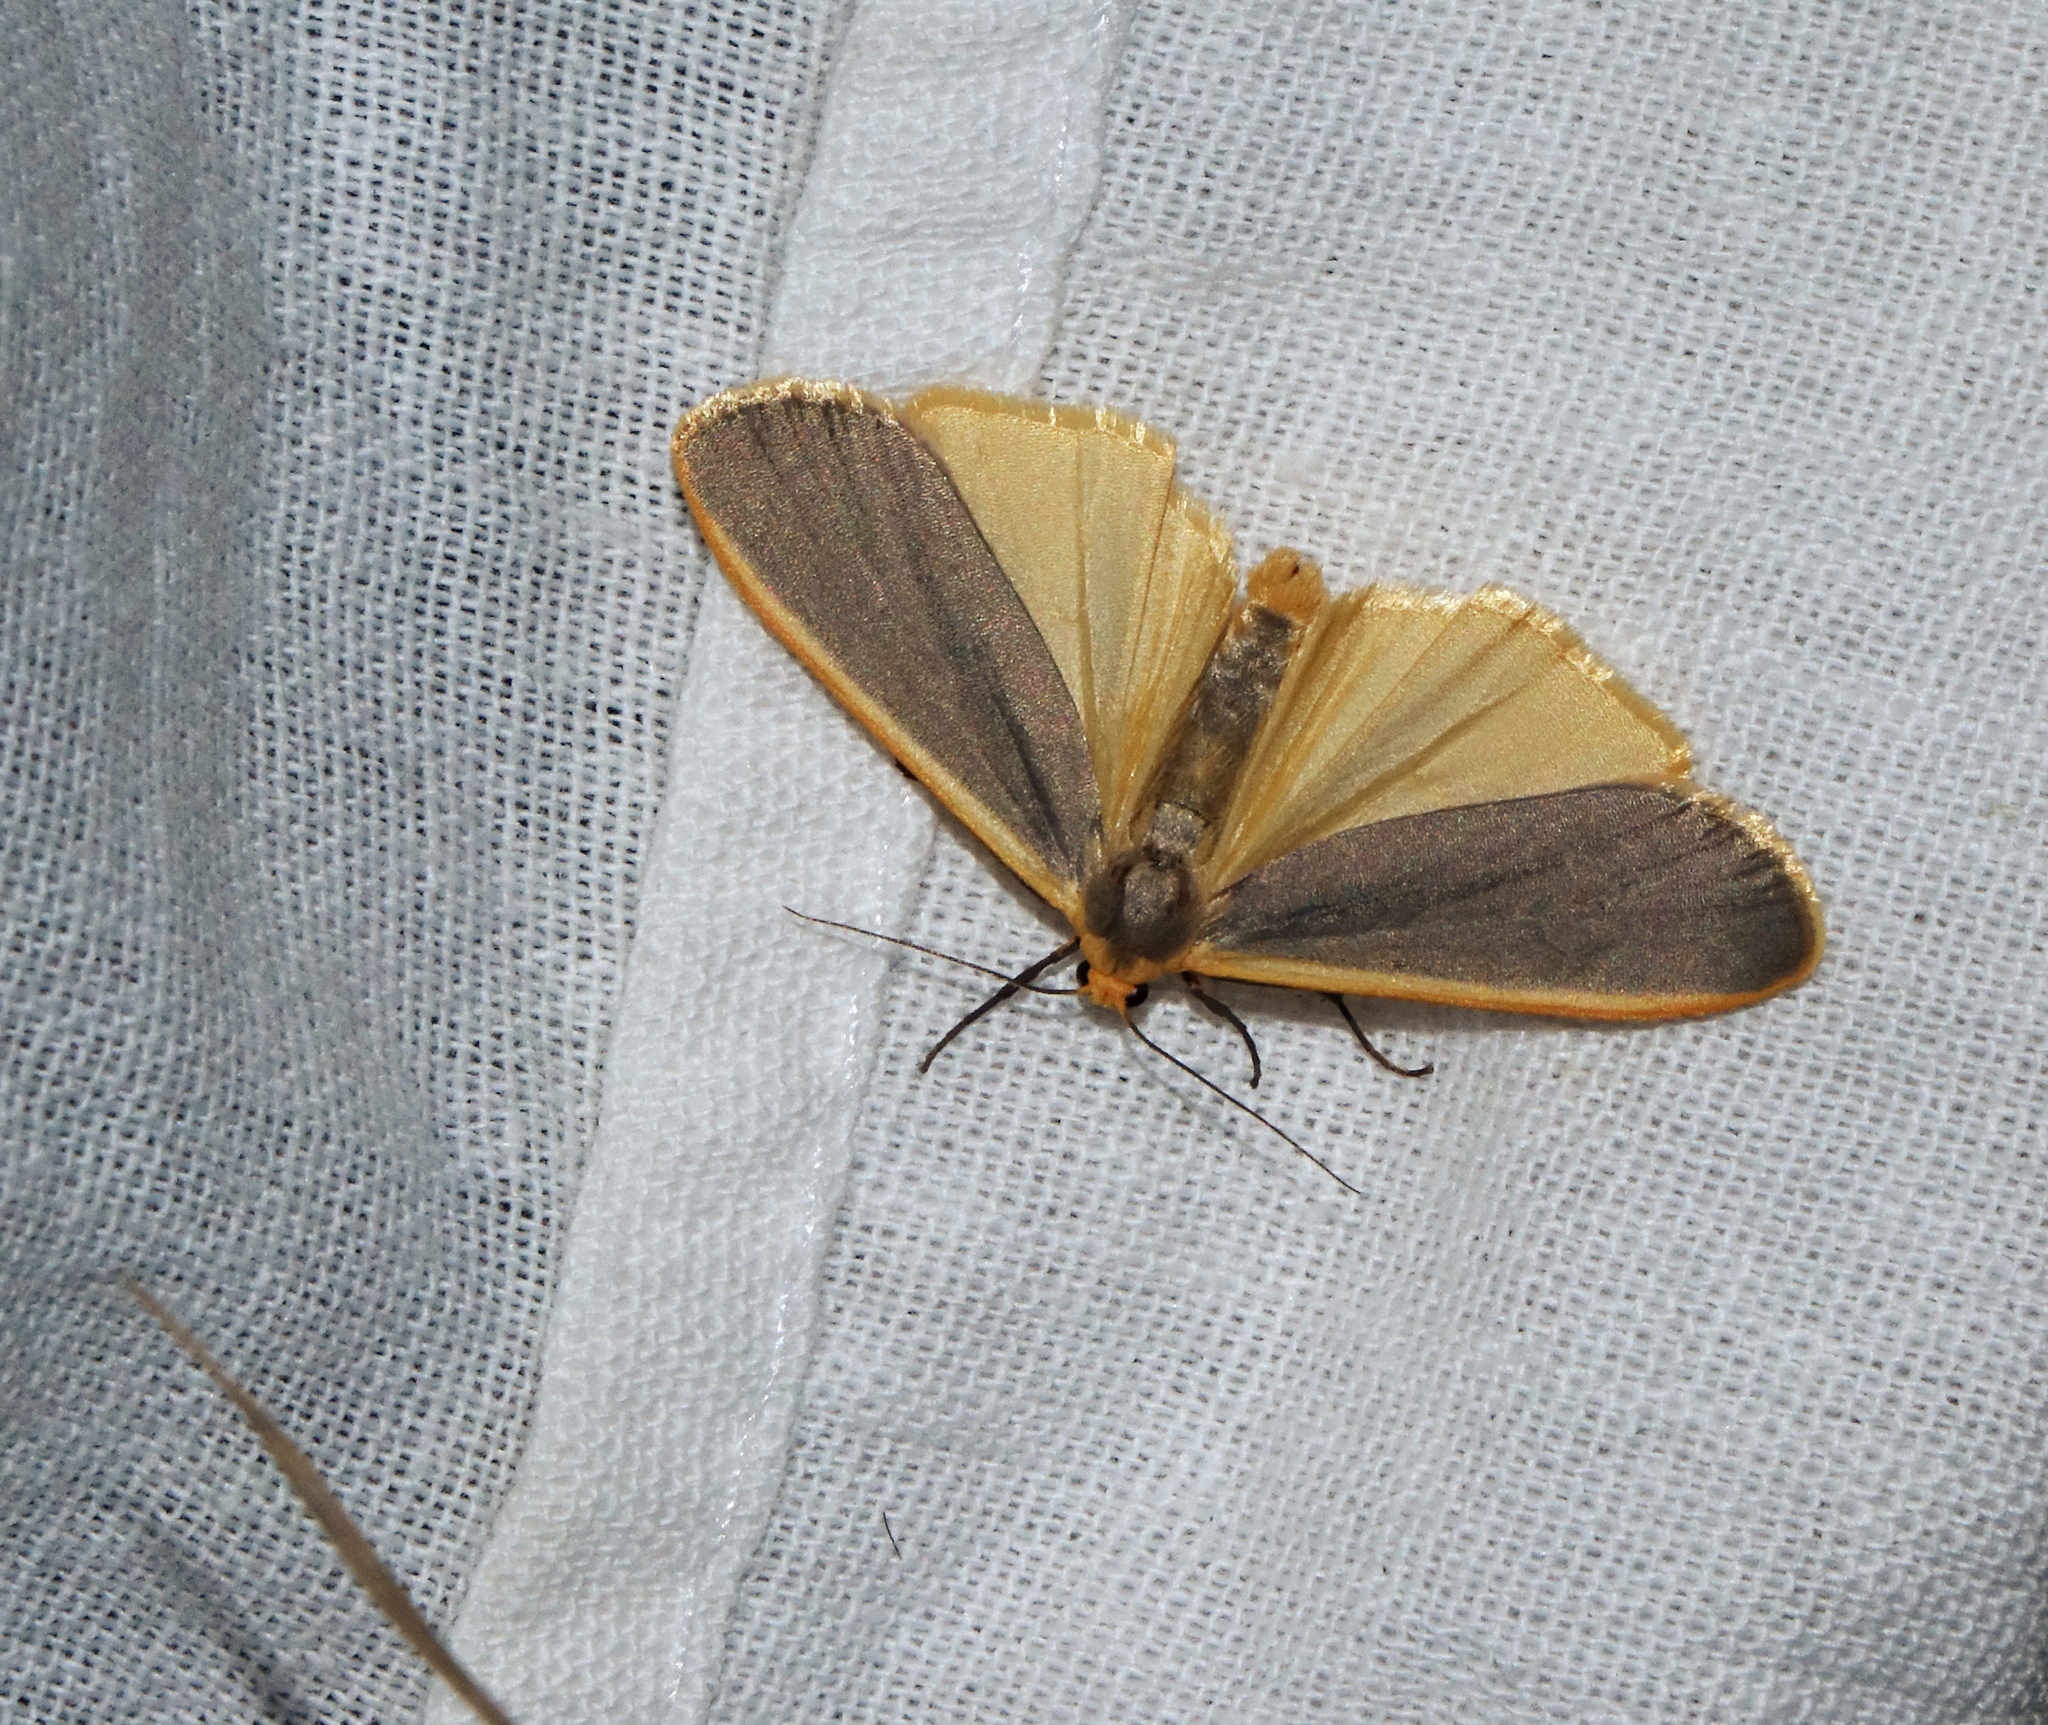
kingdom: Animalia
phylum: Arthropoda
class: Insecta
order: Lepidoptera
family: Erebidae
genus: Nyea
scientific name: Nyea lurideola
